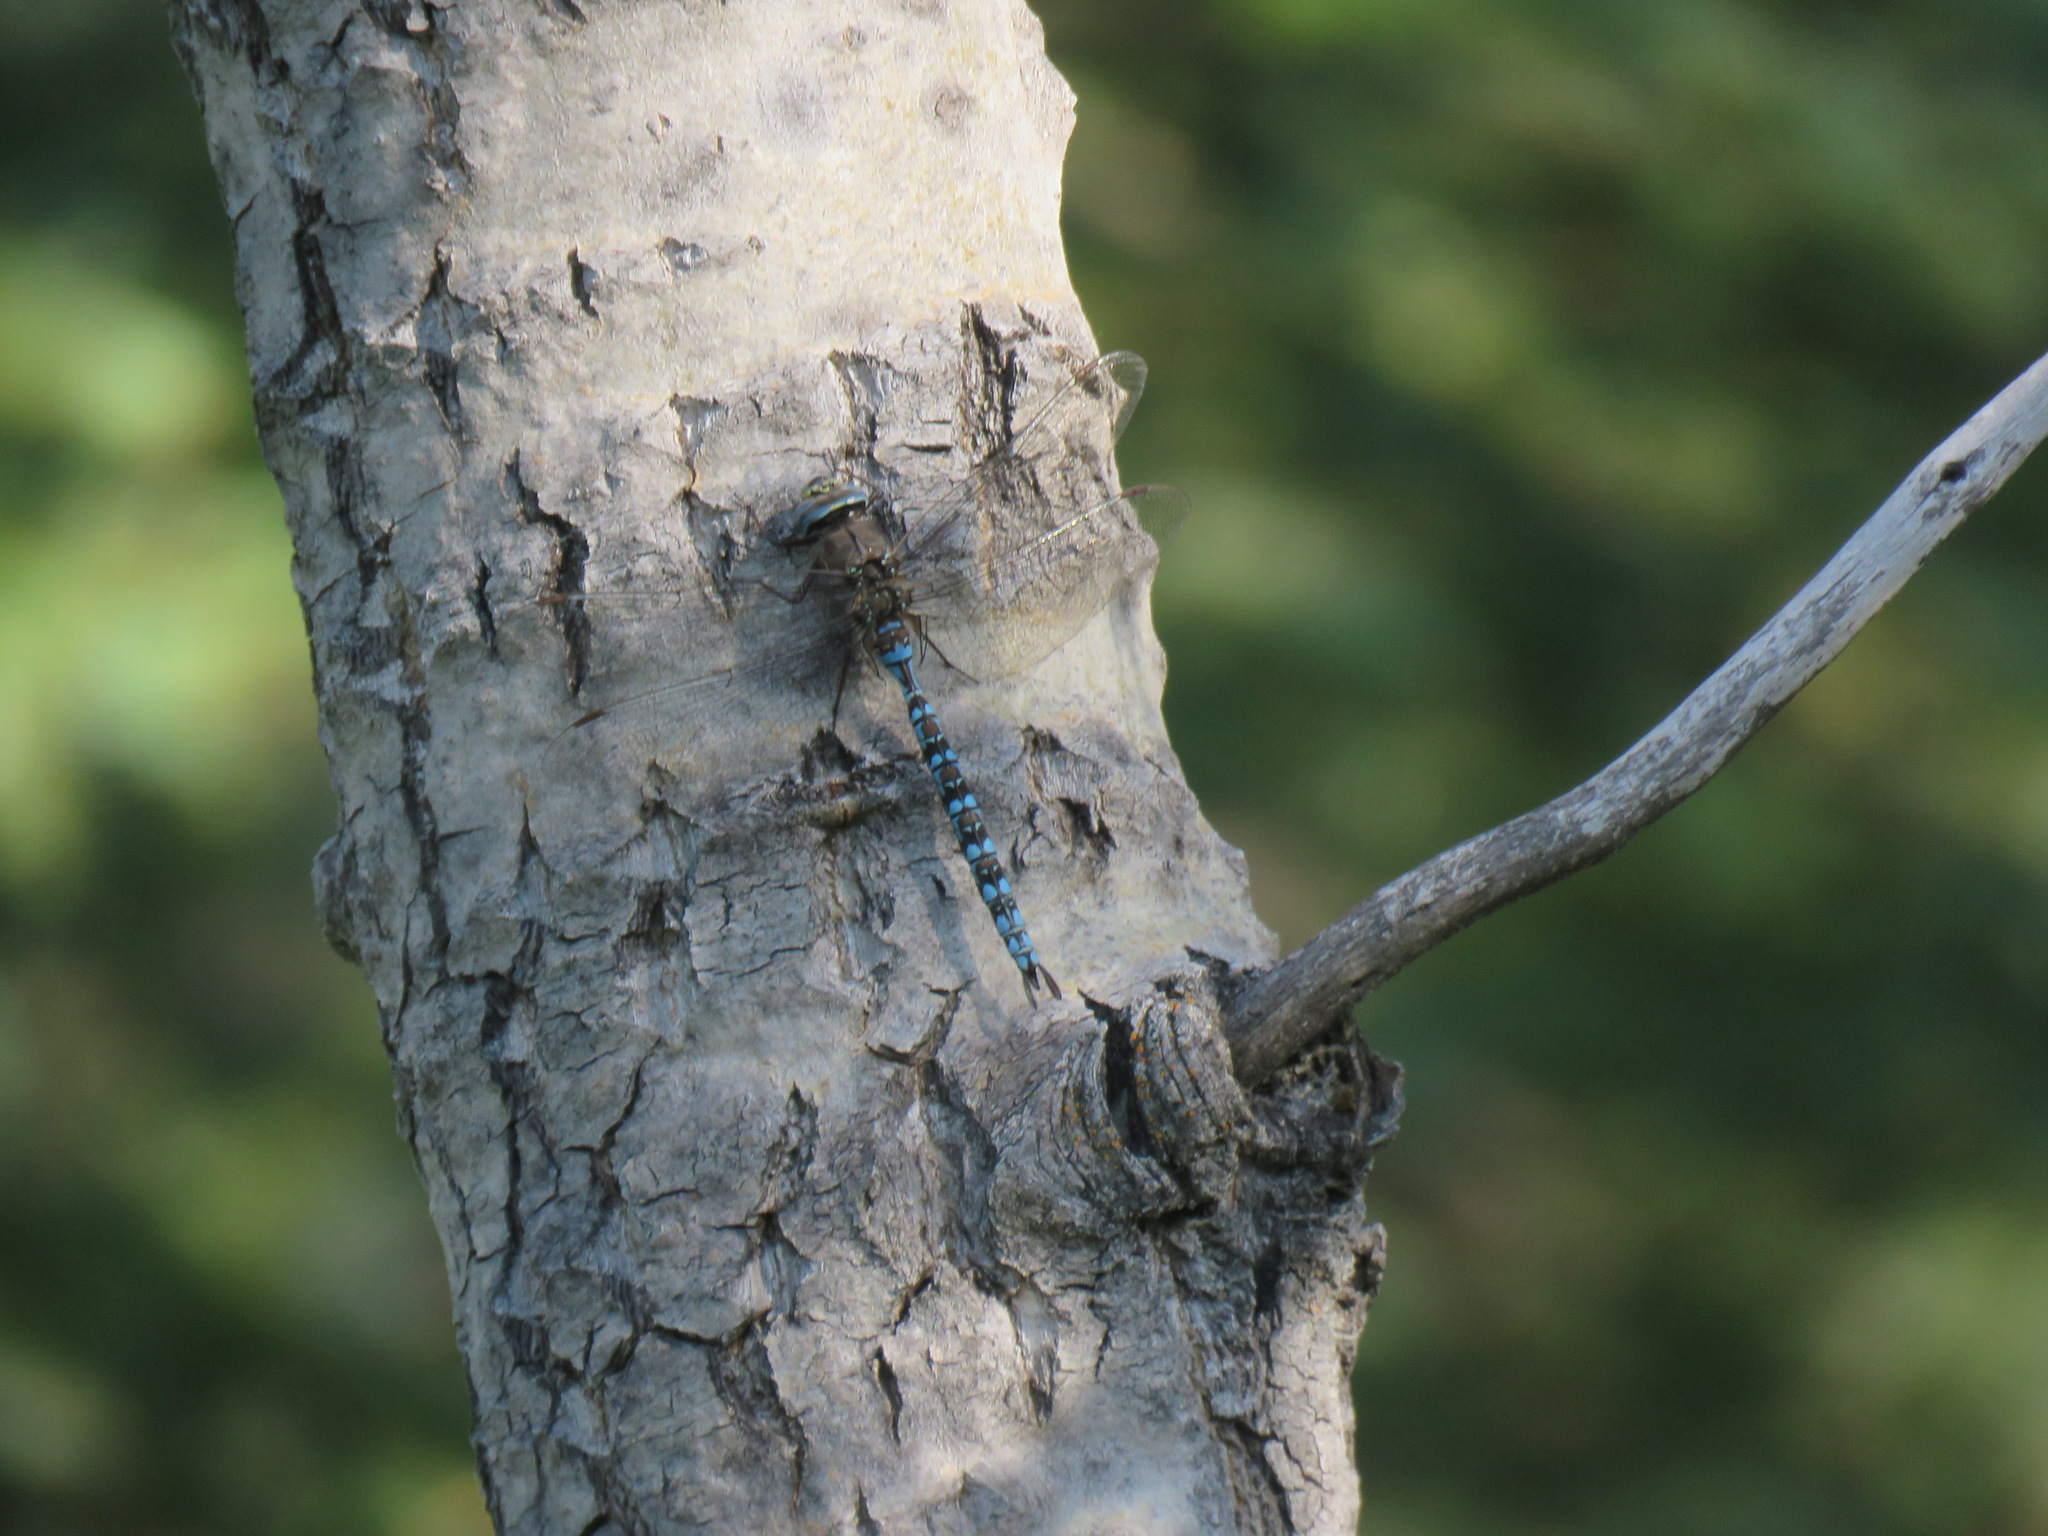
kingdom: Animalia
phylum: Arthropoda
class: Insecta
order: Odonata
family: Aeshnidae
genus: Aeshna
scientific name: Aeshna sitchensis
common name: Zigzag darner
